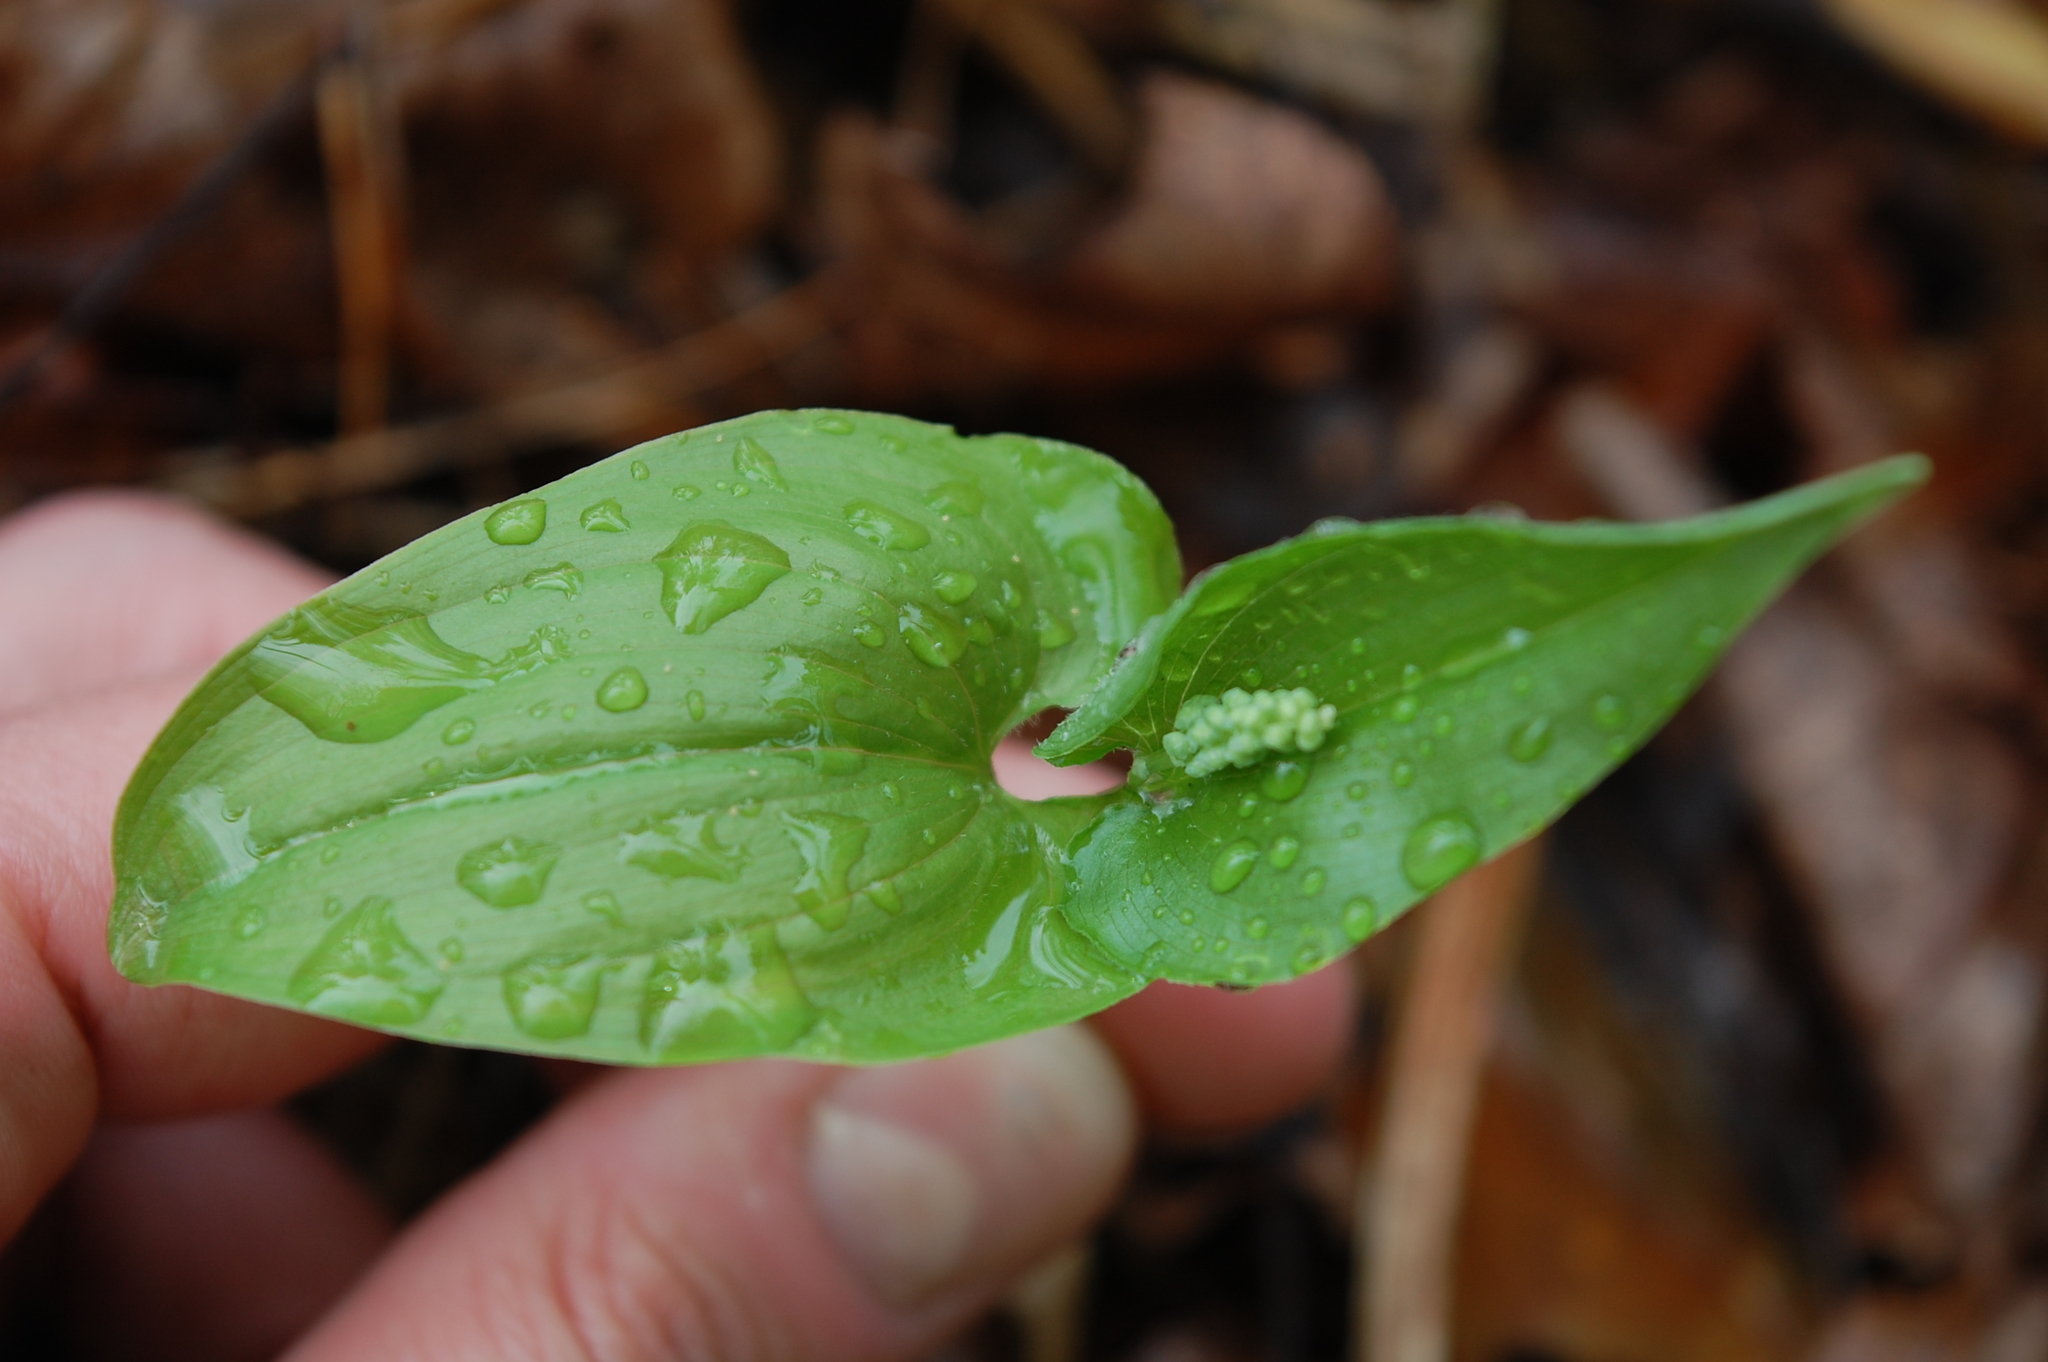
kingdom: Plantae
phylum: Tracheophyta
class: Liliopsida
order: Asparagales
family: Asparagaceae
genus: Maianthemum
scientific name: Maianthemum bifolium
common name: May lily
